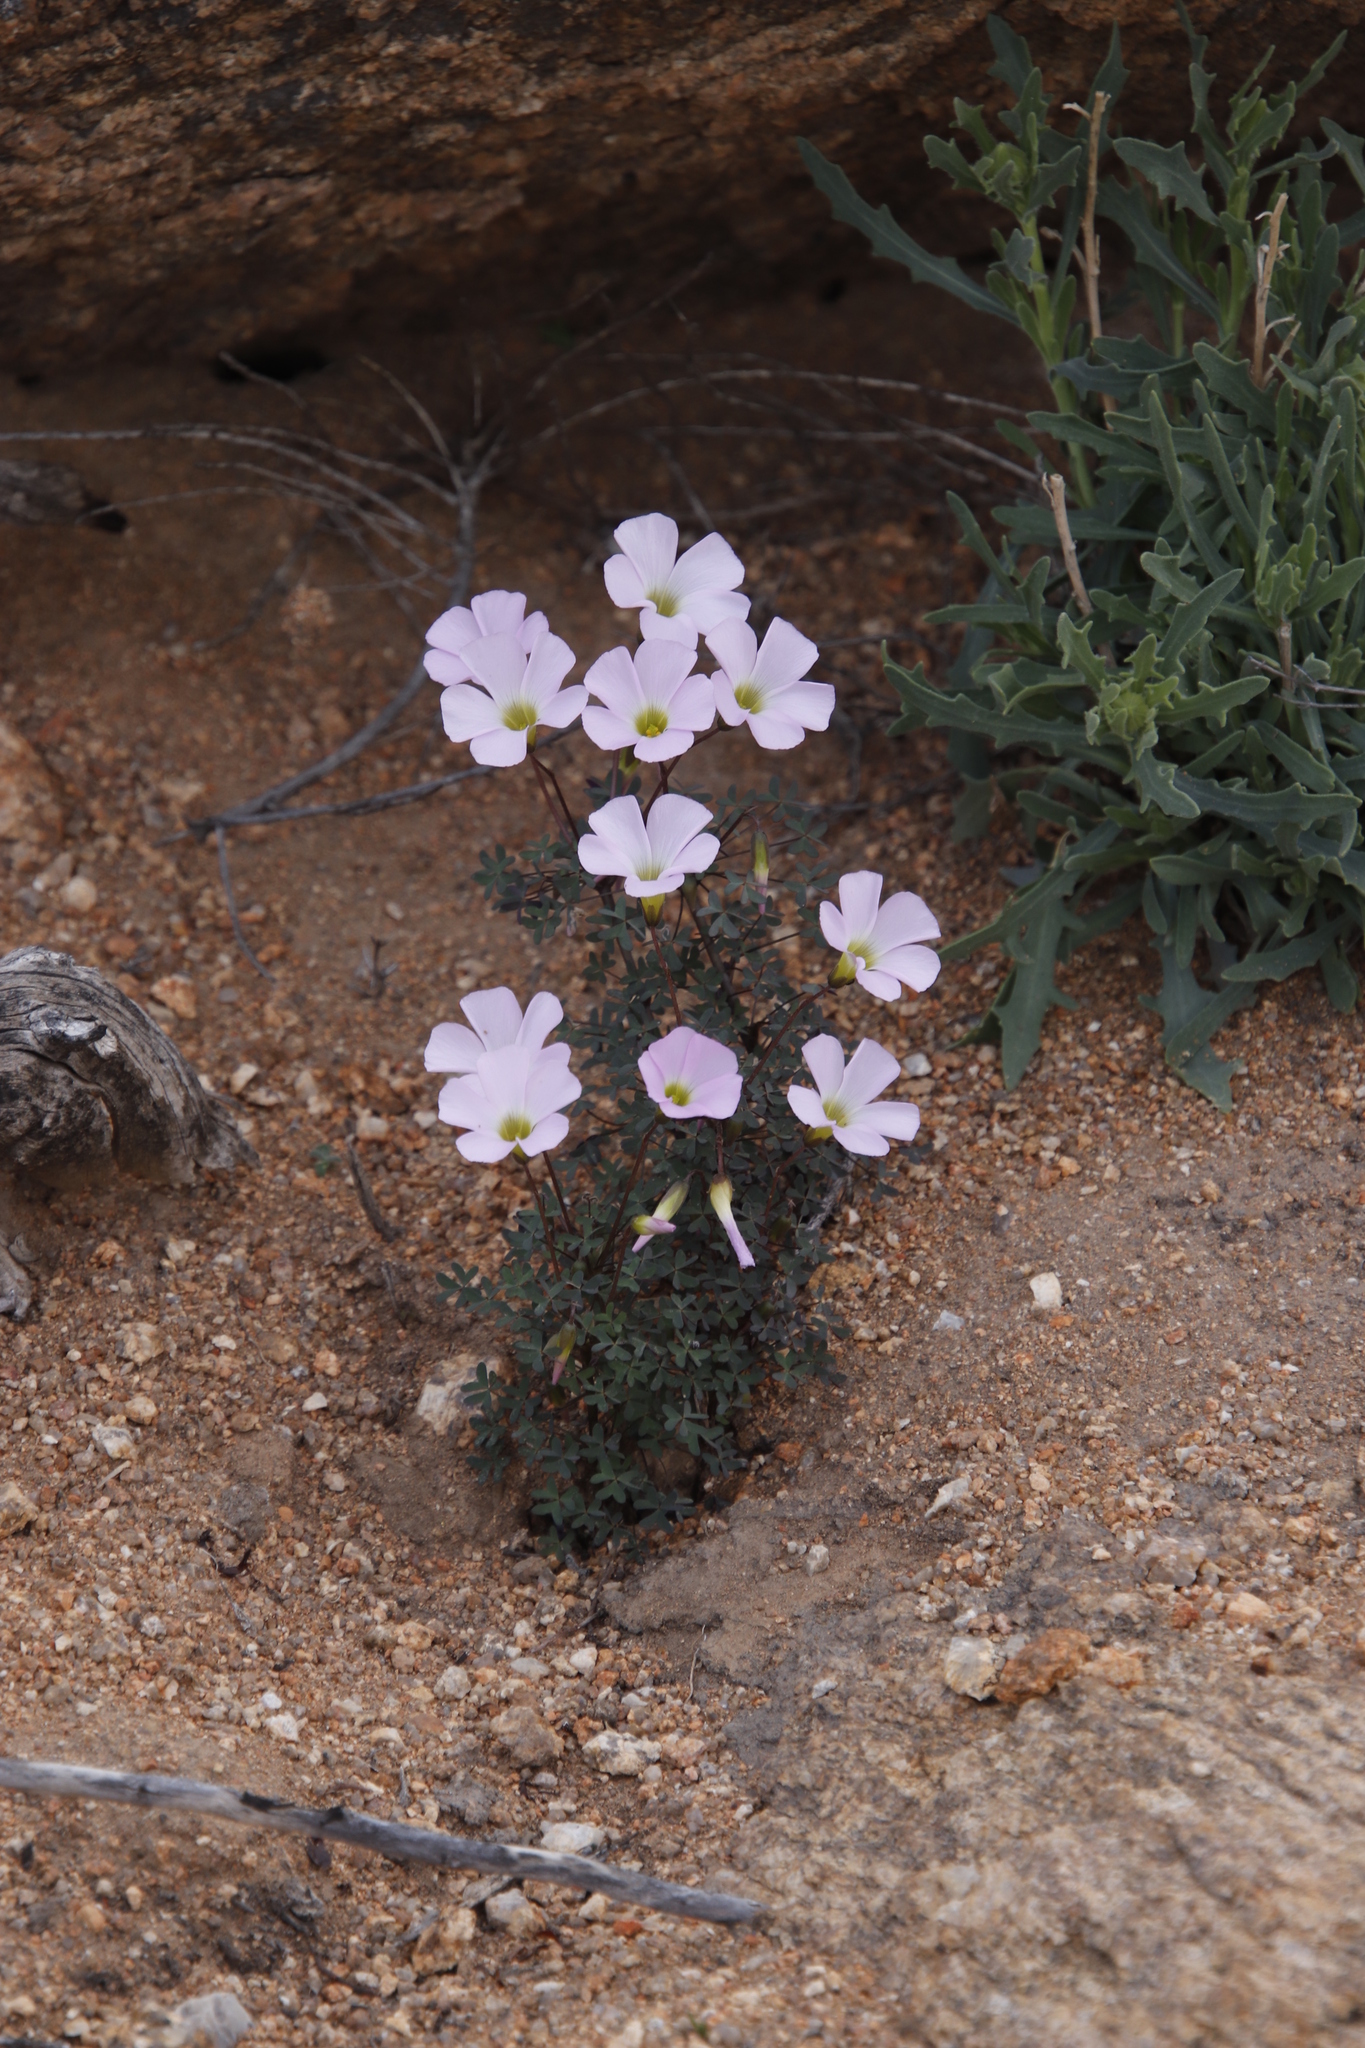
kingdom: Plantae
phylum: Tracheophyta
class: Magnoliopsida
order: Oxalidales
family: Oxalidaceae
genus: Oxalis
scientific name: Oxalis comosa
